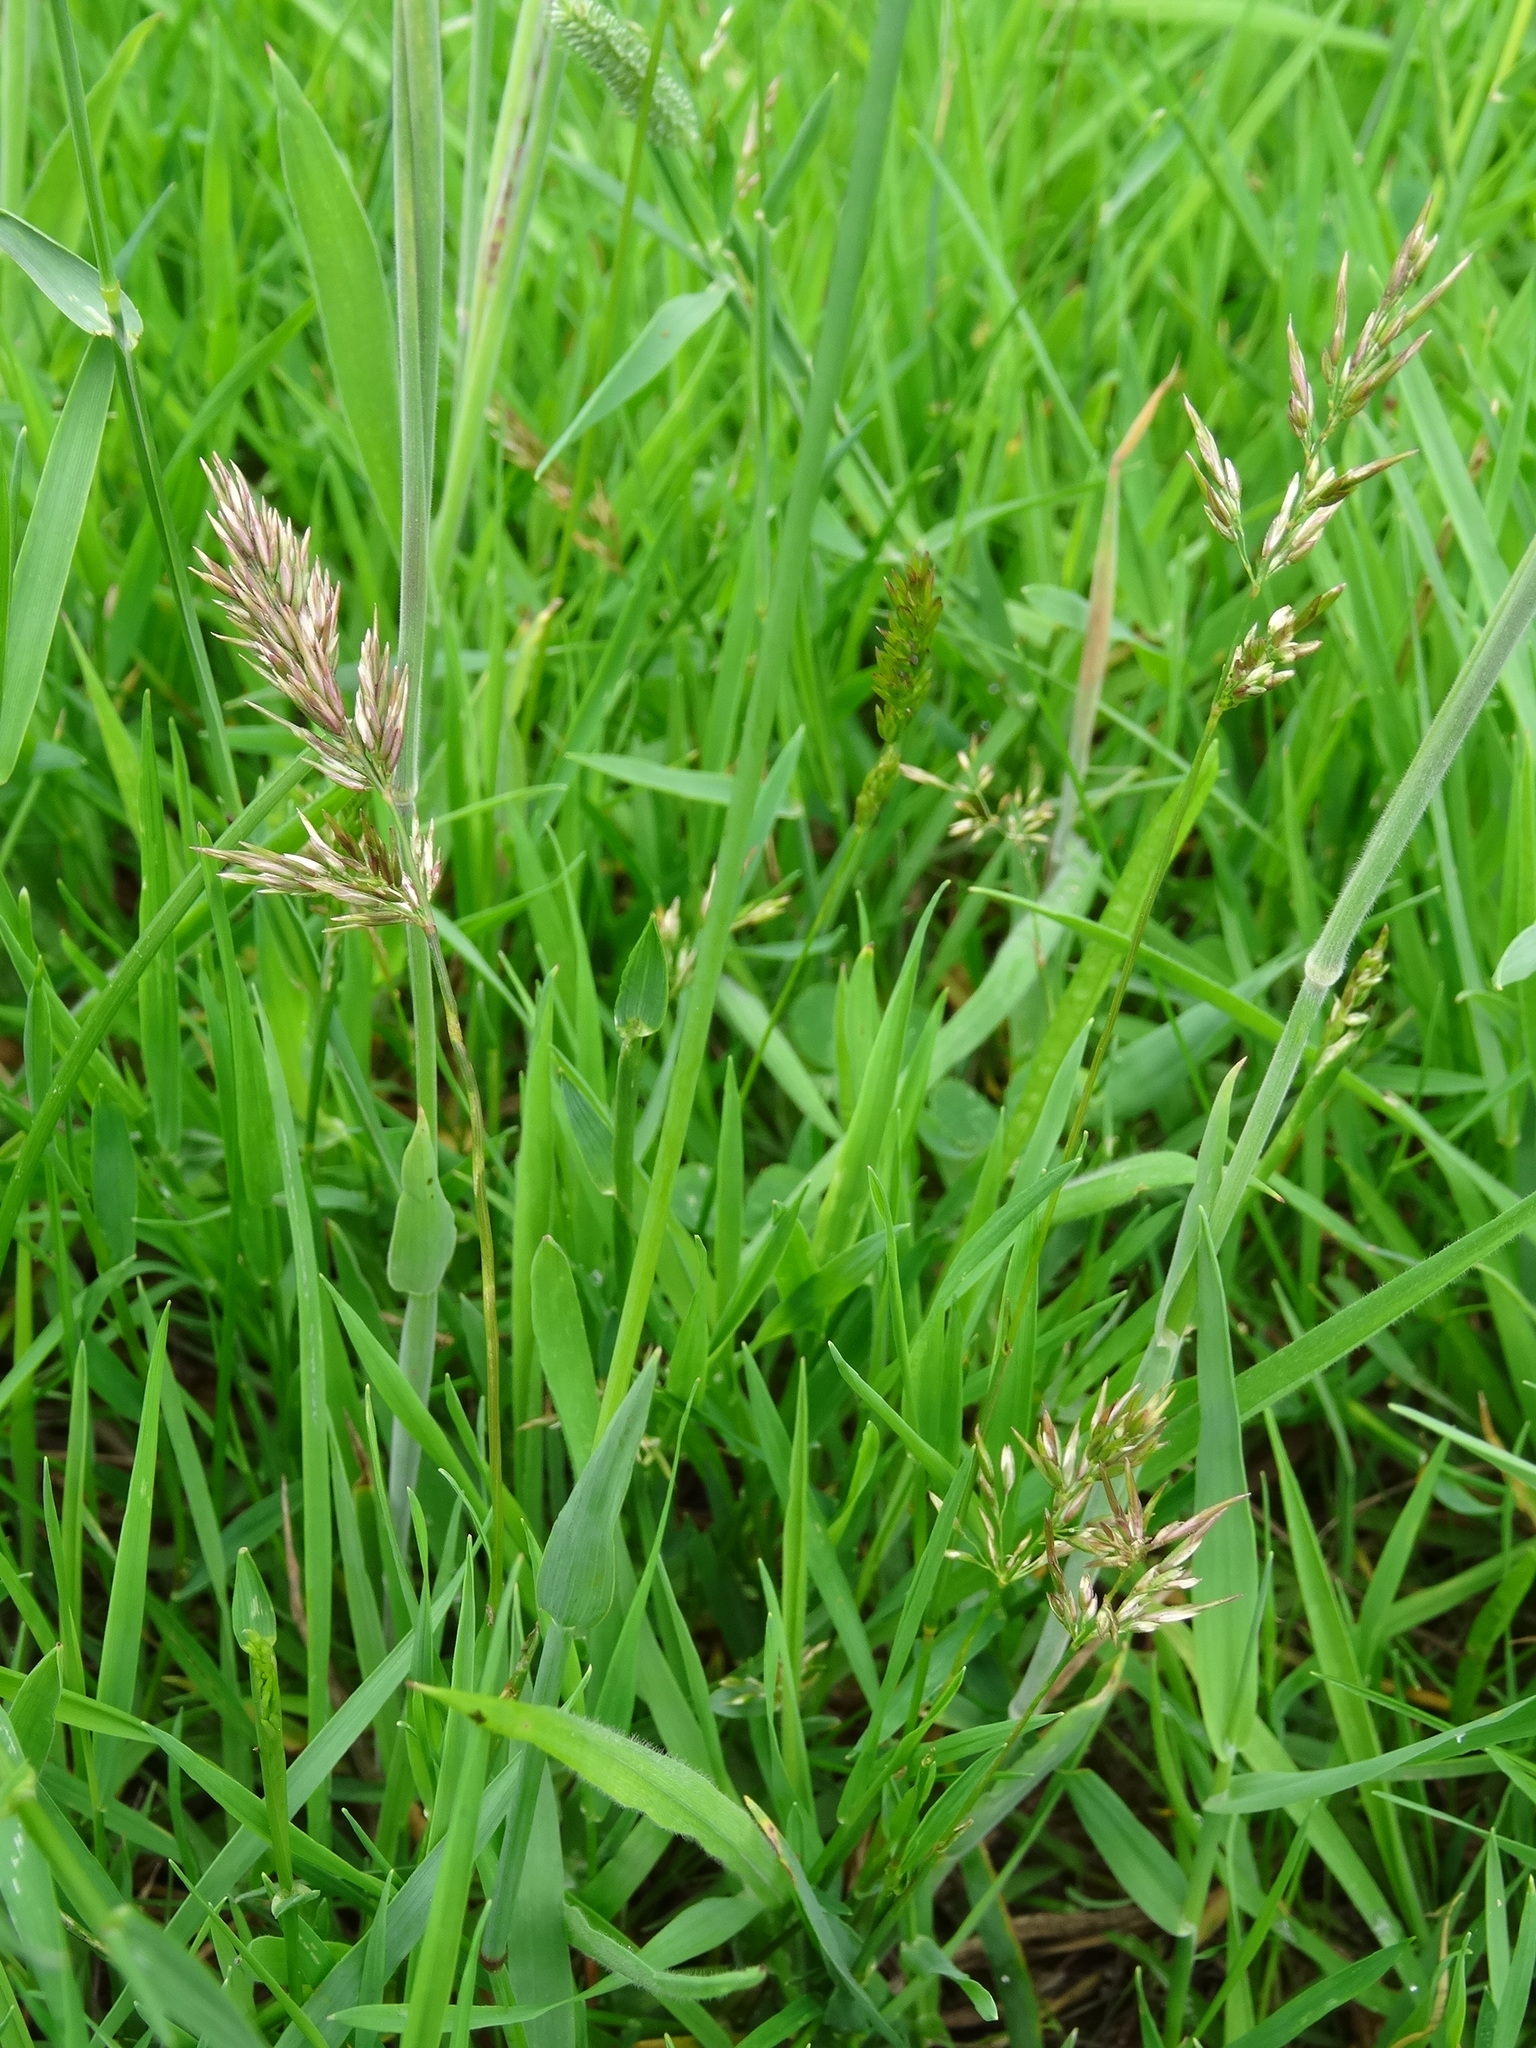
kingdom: Plantae
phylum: Tracheophyta
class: Liliopsida
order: Poales
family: Poaceae
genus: Anthoxanthum
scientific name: Anthoxanthum odoratum
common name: Sweet vernalgrass
